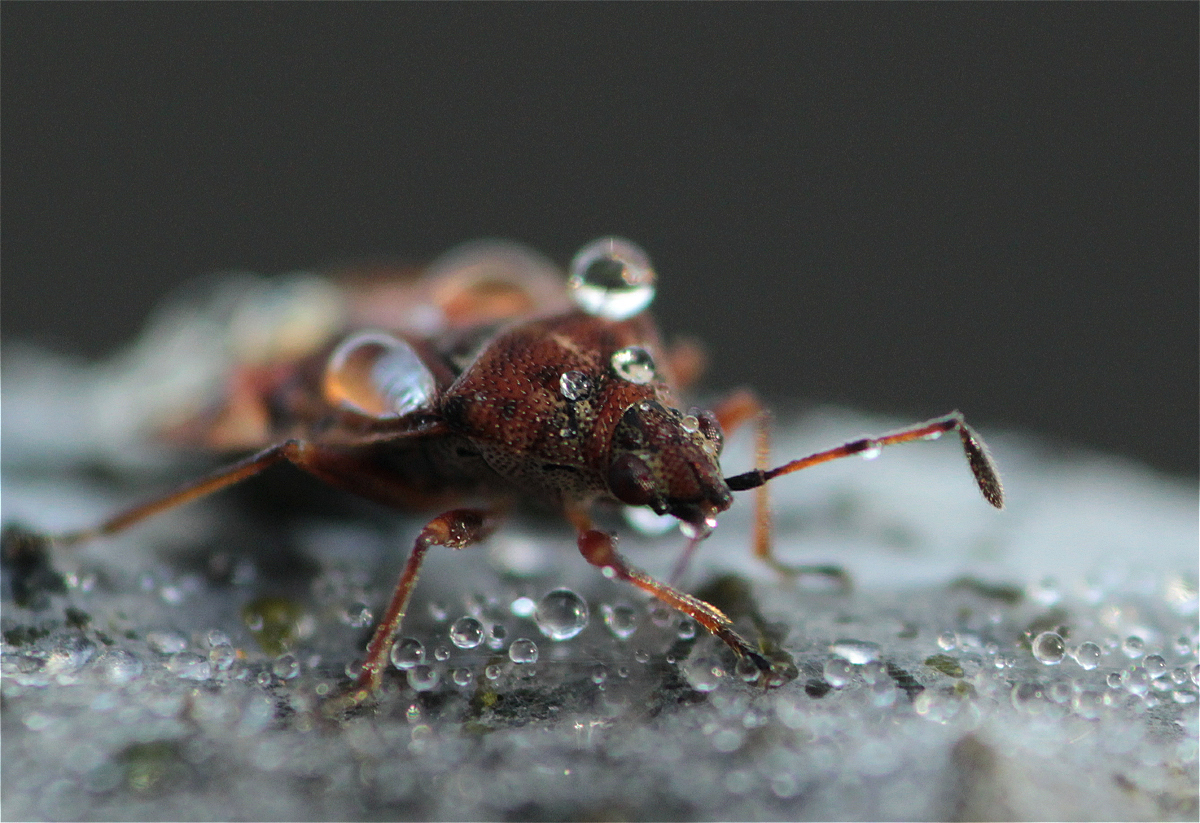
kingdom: Animalia
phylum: Arthropoda
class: Insecta
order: Hemiptera
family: Lygaeidae
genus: Kleidocerys
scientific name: Kleidocerys resedae
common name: Birch catkin bug
